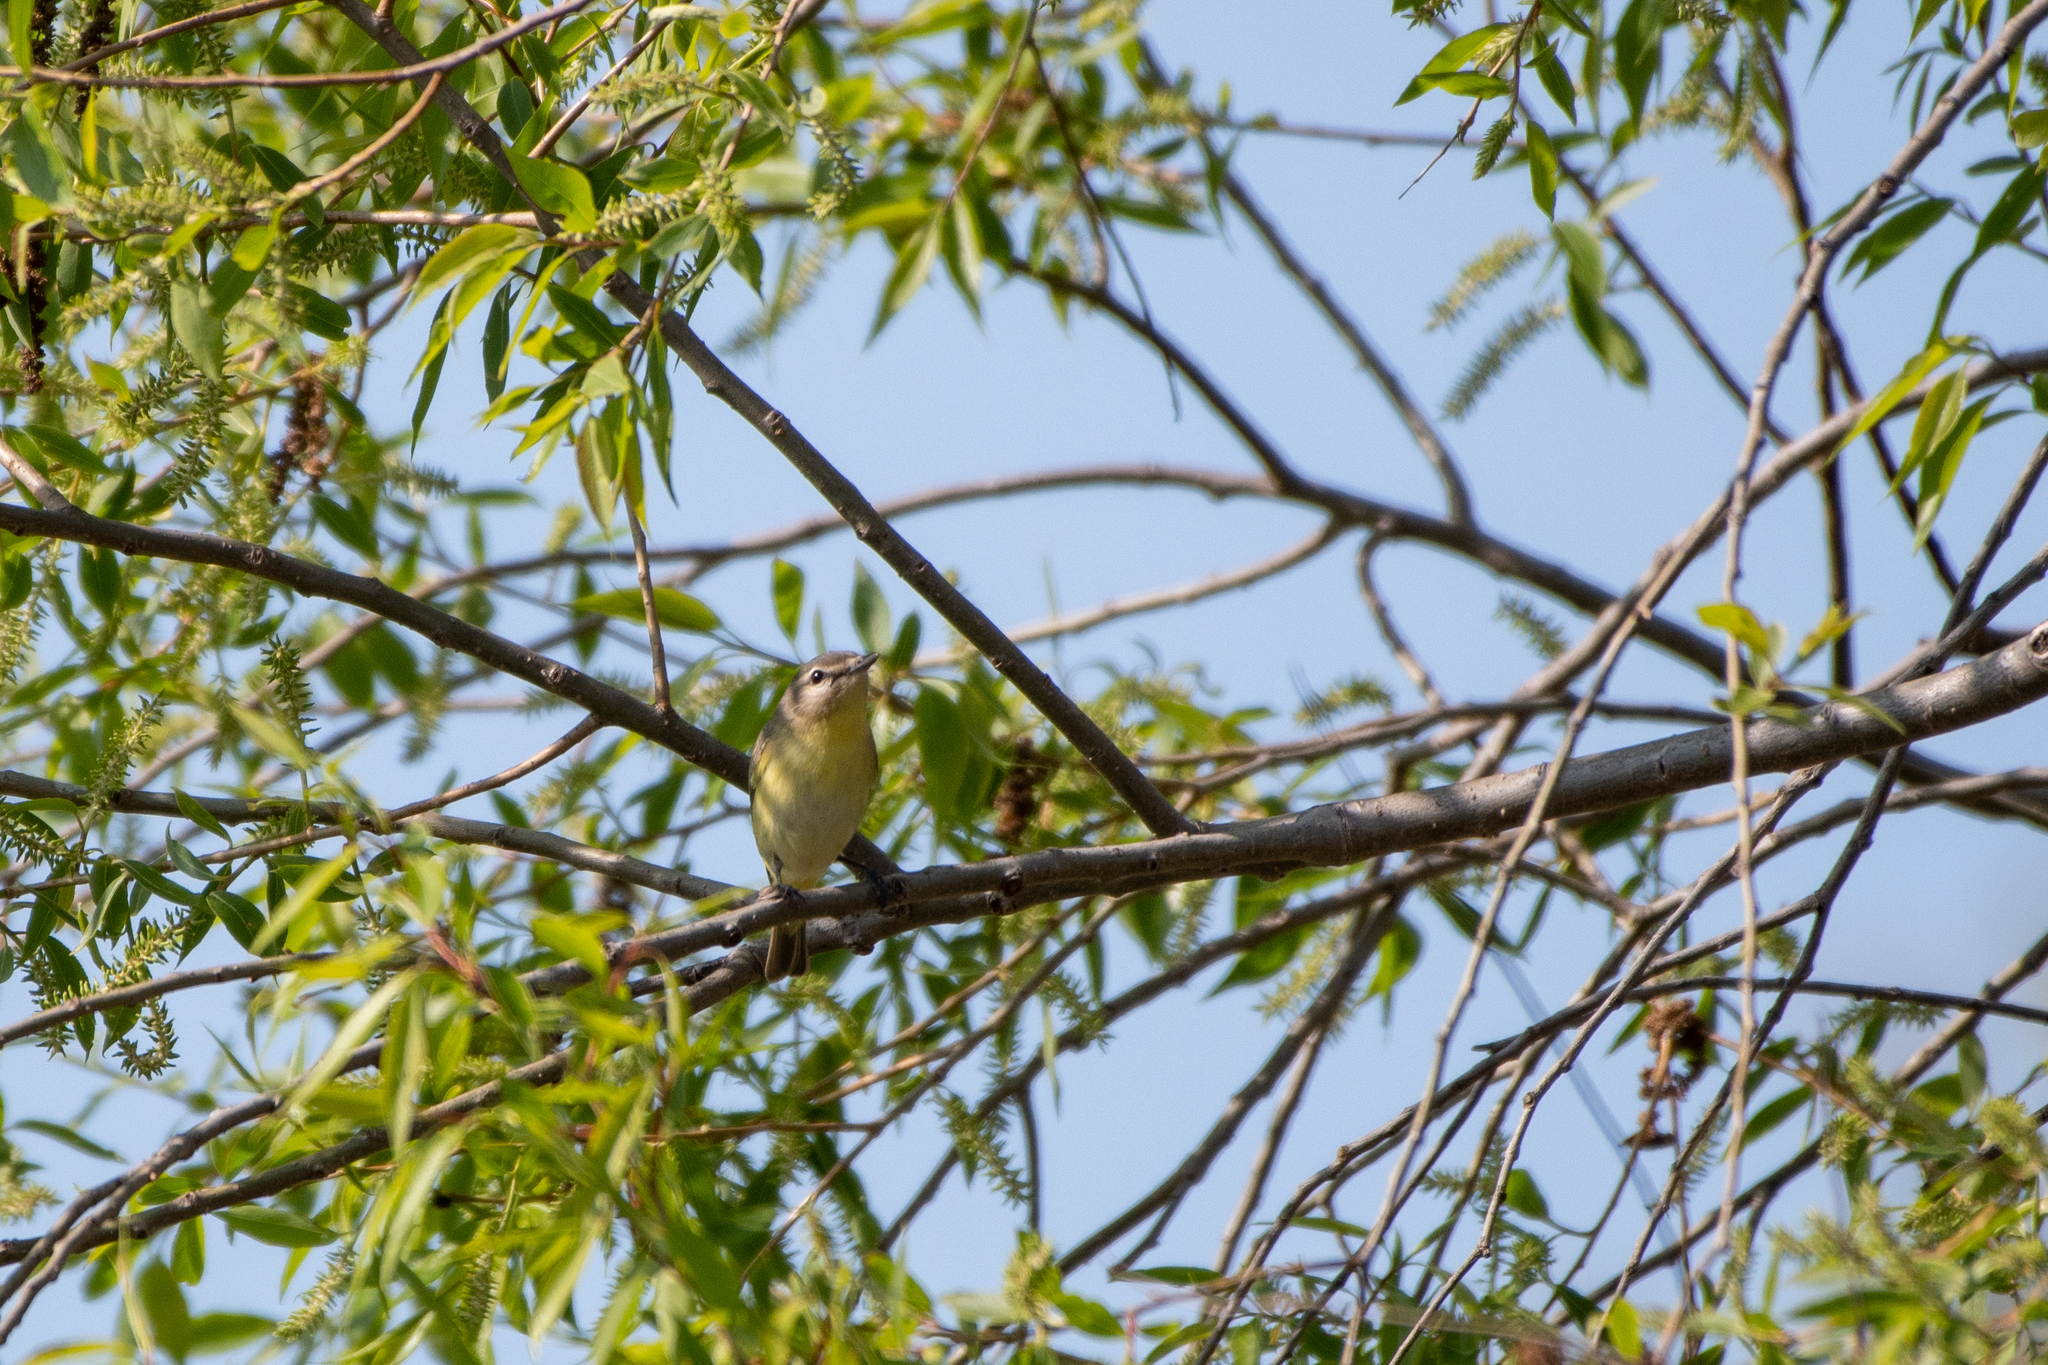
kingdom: Animalia
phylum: Chordata
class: Aves
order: Passeriformes
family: Vireonidae
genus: Vireo
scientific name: Vireo philadelphicus
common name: Philadelphia vireo
